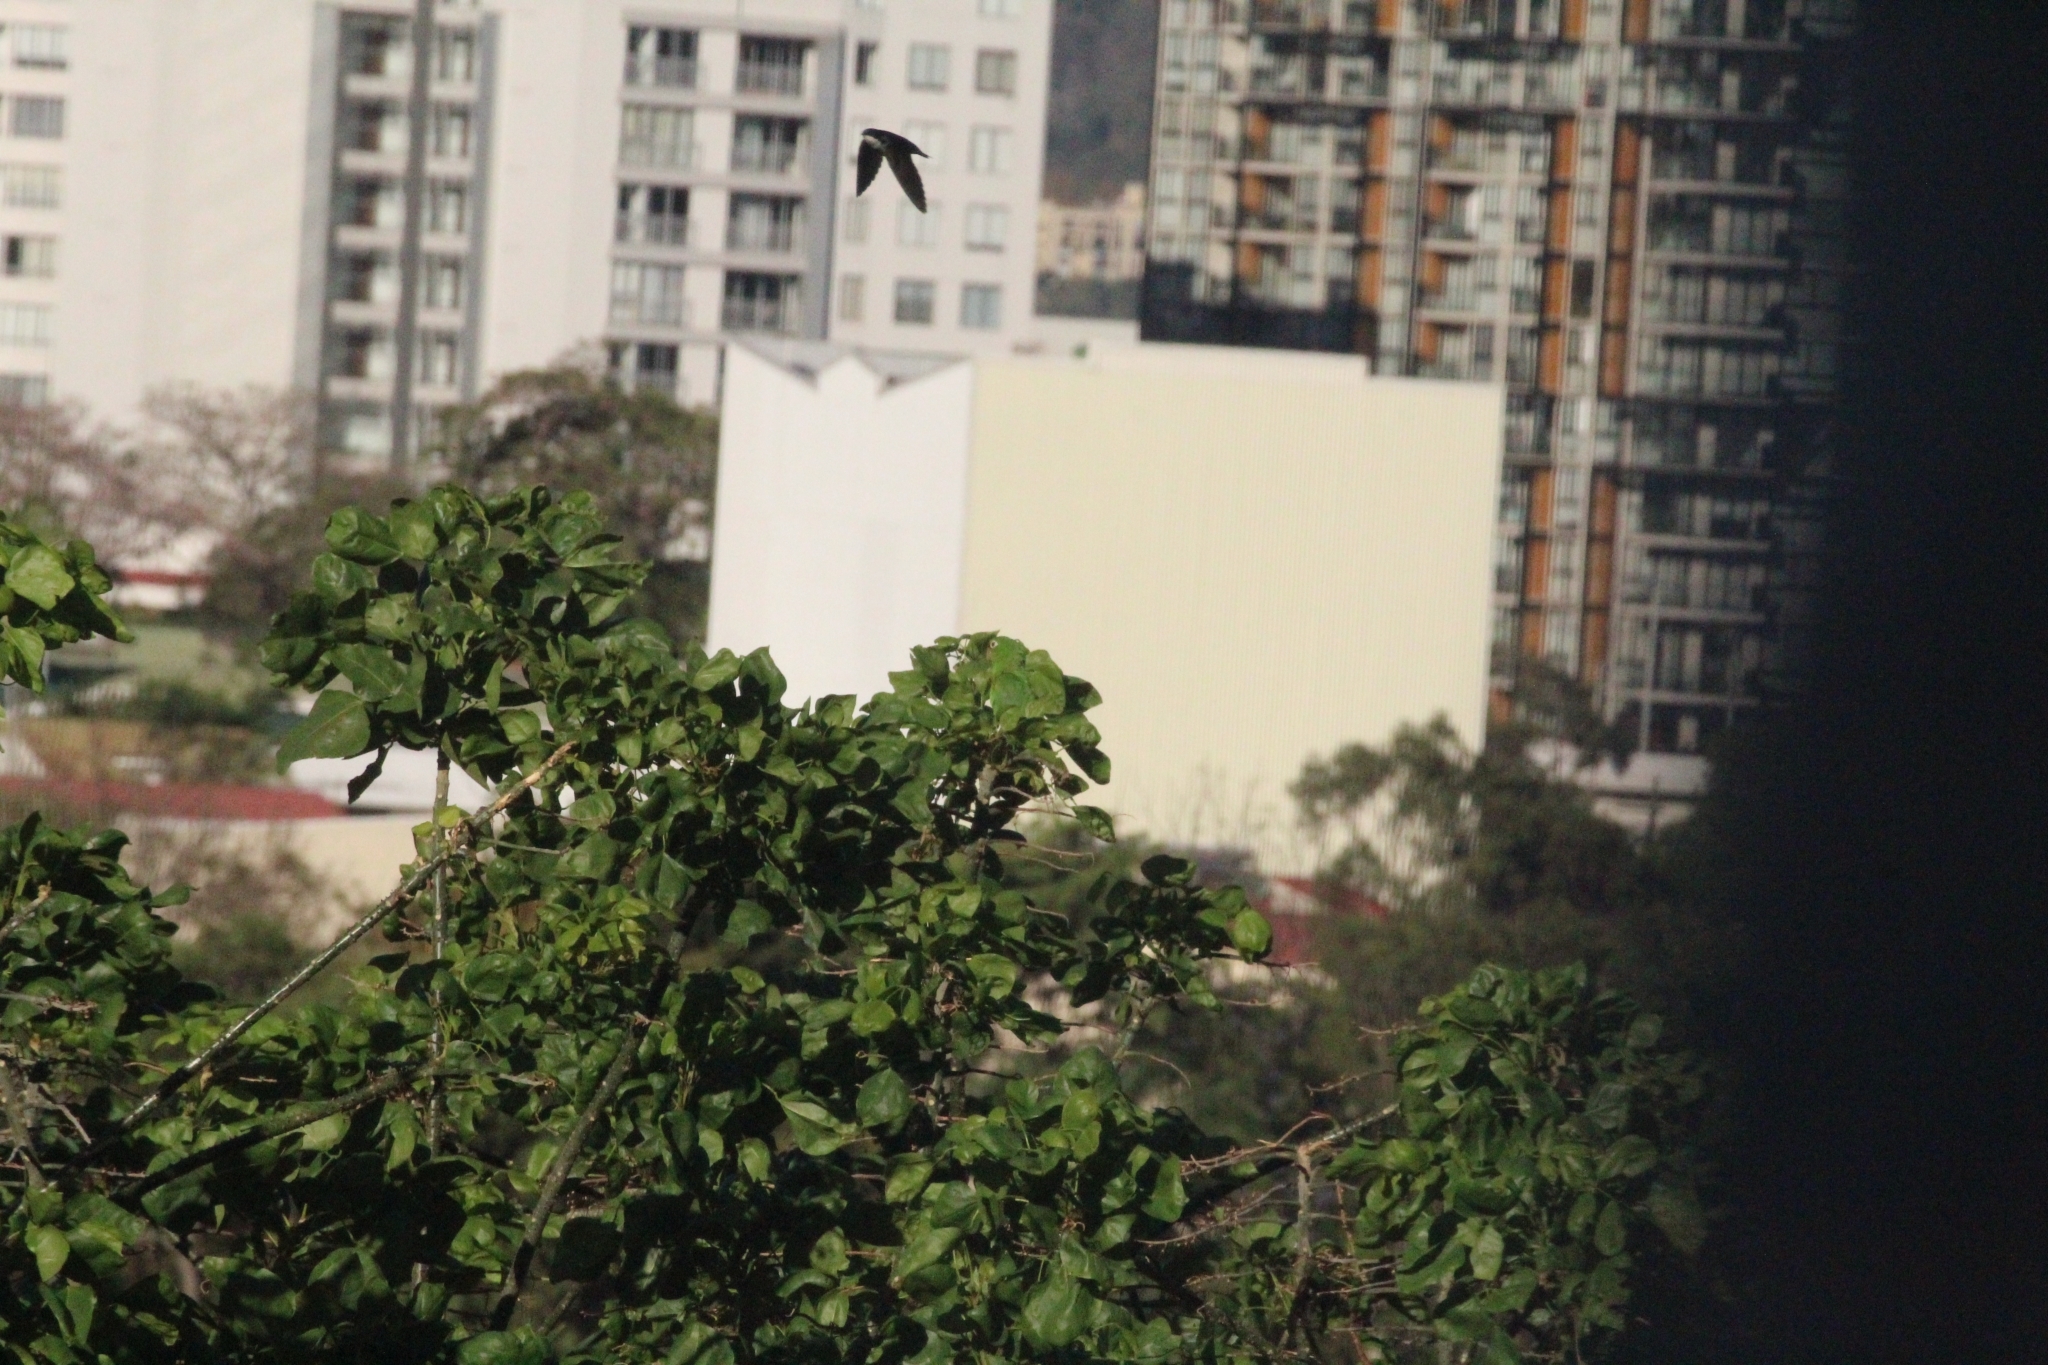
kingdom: Animalia
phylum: Chordata
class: Aves
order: Passeriformes
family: Hirundinidae
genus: Notiochelidon
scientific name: Notiochelidon cyanoleuca
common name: Blue-and-white swallow
